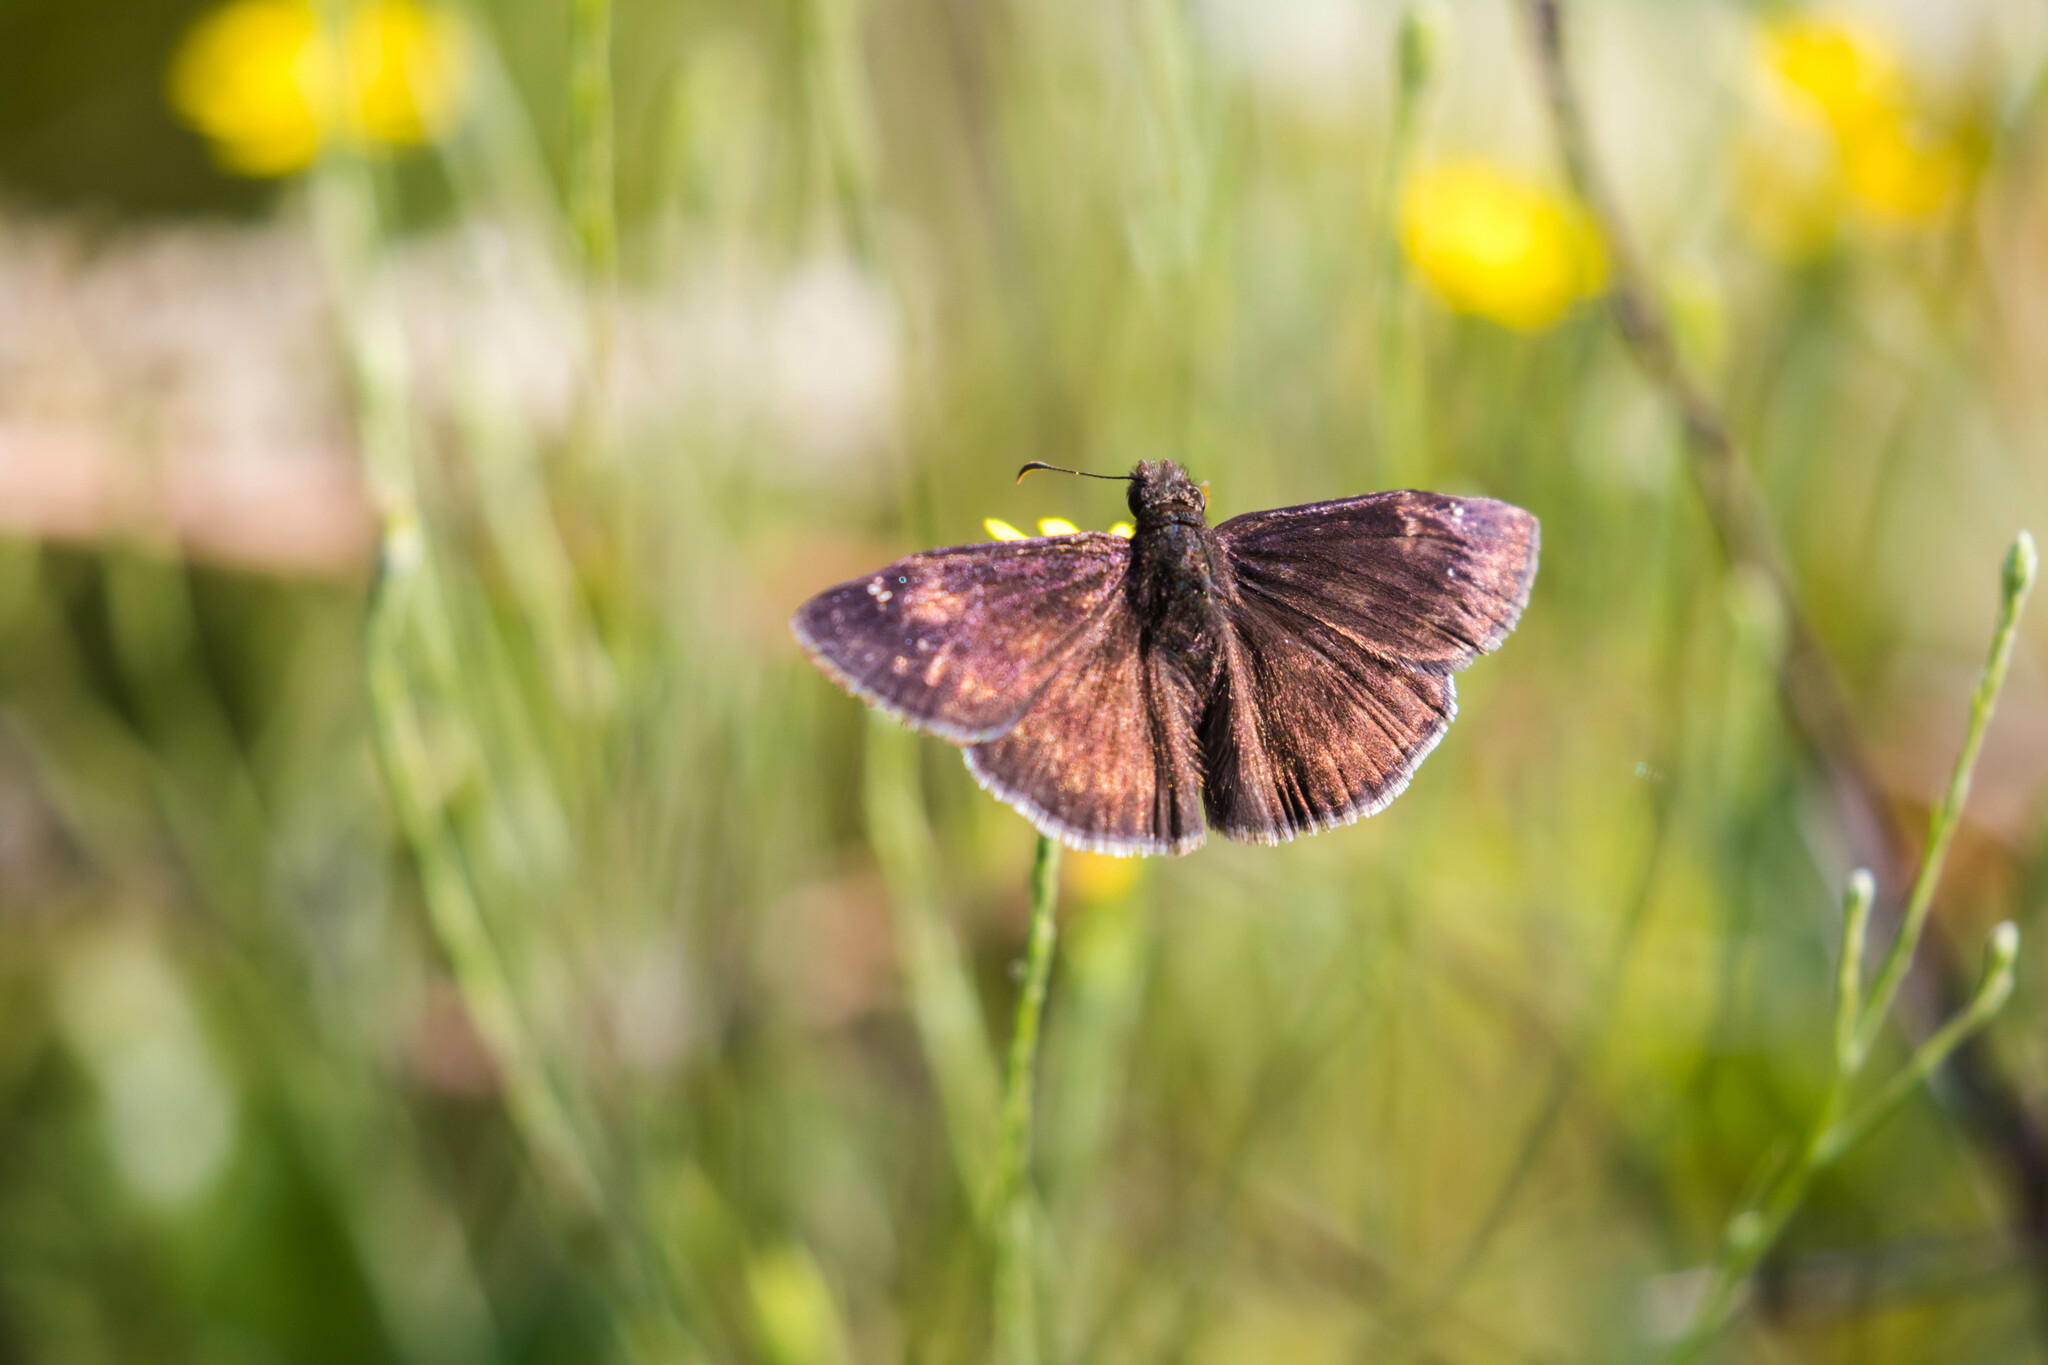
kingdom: Animalia
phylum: Arthropoda
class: Insecta
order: Lepidoptera
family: Hesperiidae
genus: Erynnis
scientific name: Erynnis zarucco
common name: Zarucco duskywing
